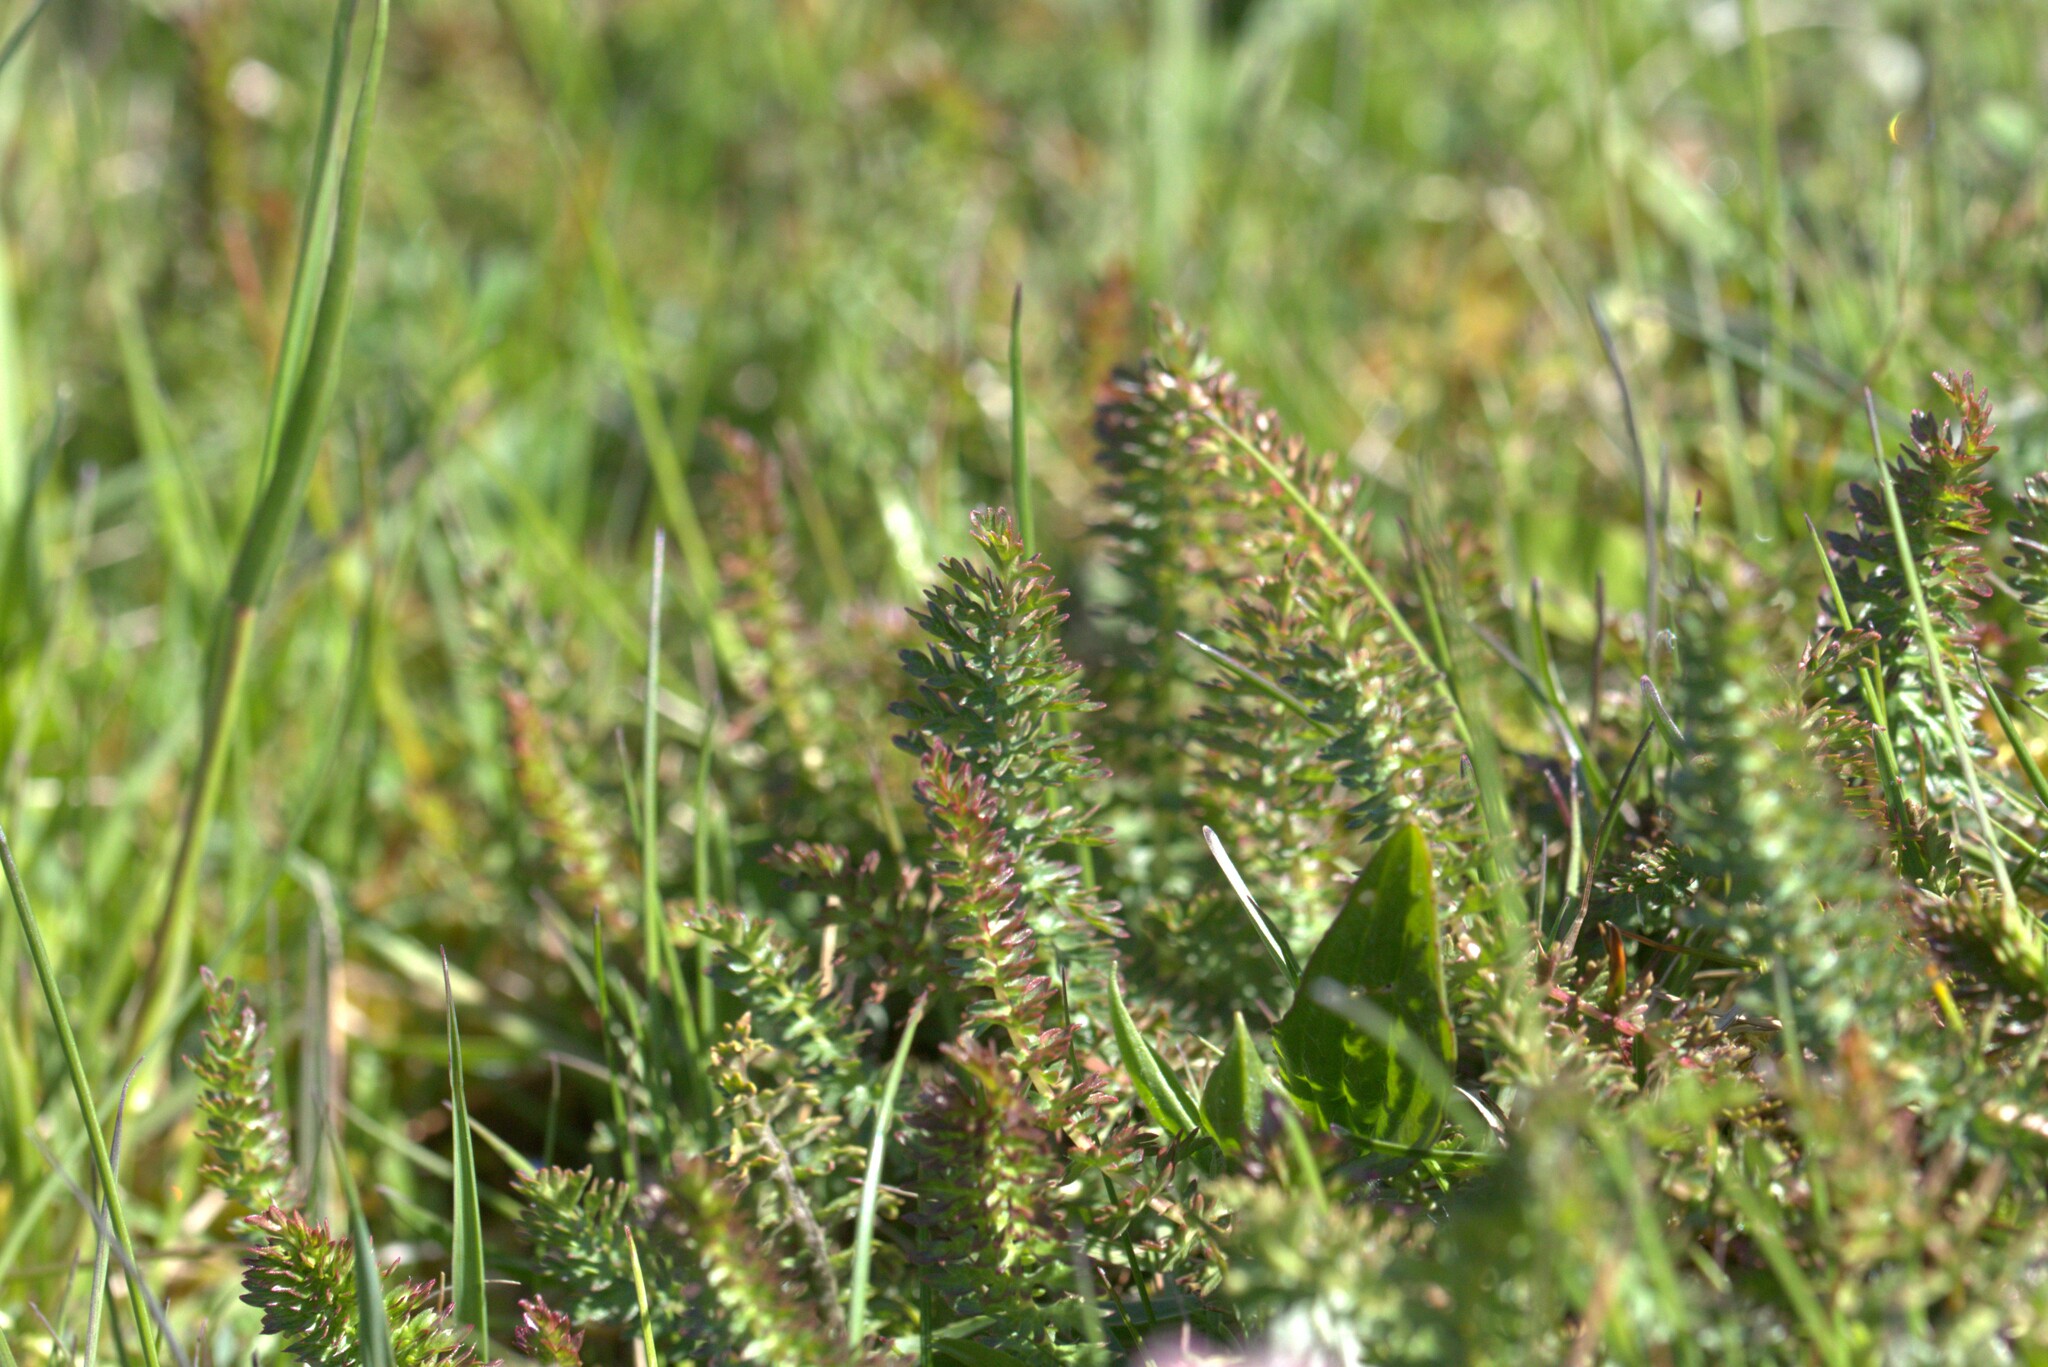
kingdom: Plantae
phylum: Tracheophyta
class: Magnoliopsida
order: Rosales
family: Rosaceae
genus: Filipendula
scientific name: Filipendula vulgaris
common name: Dropwort
